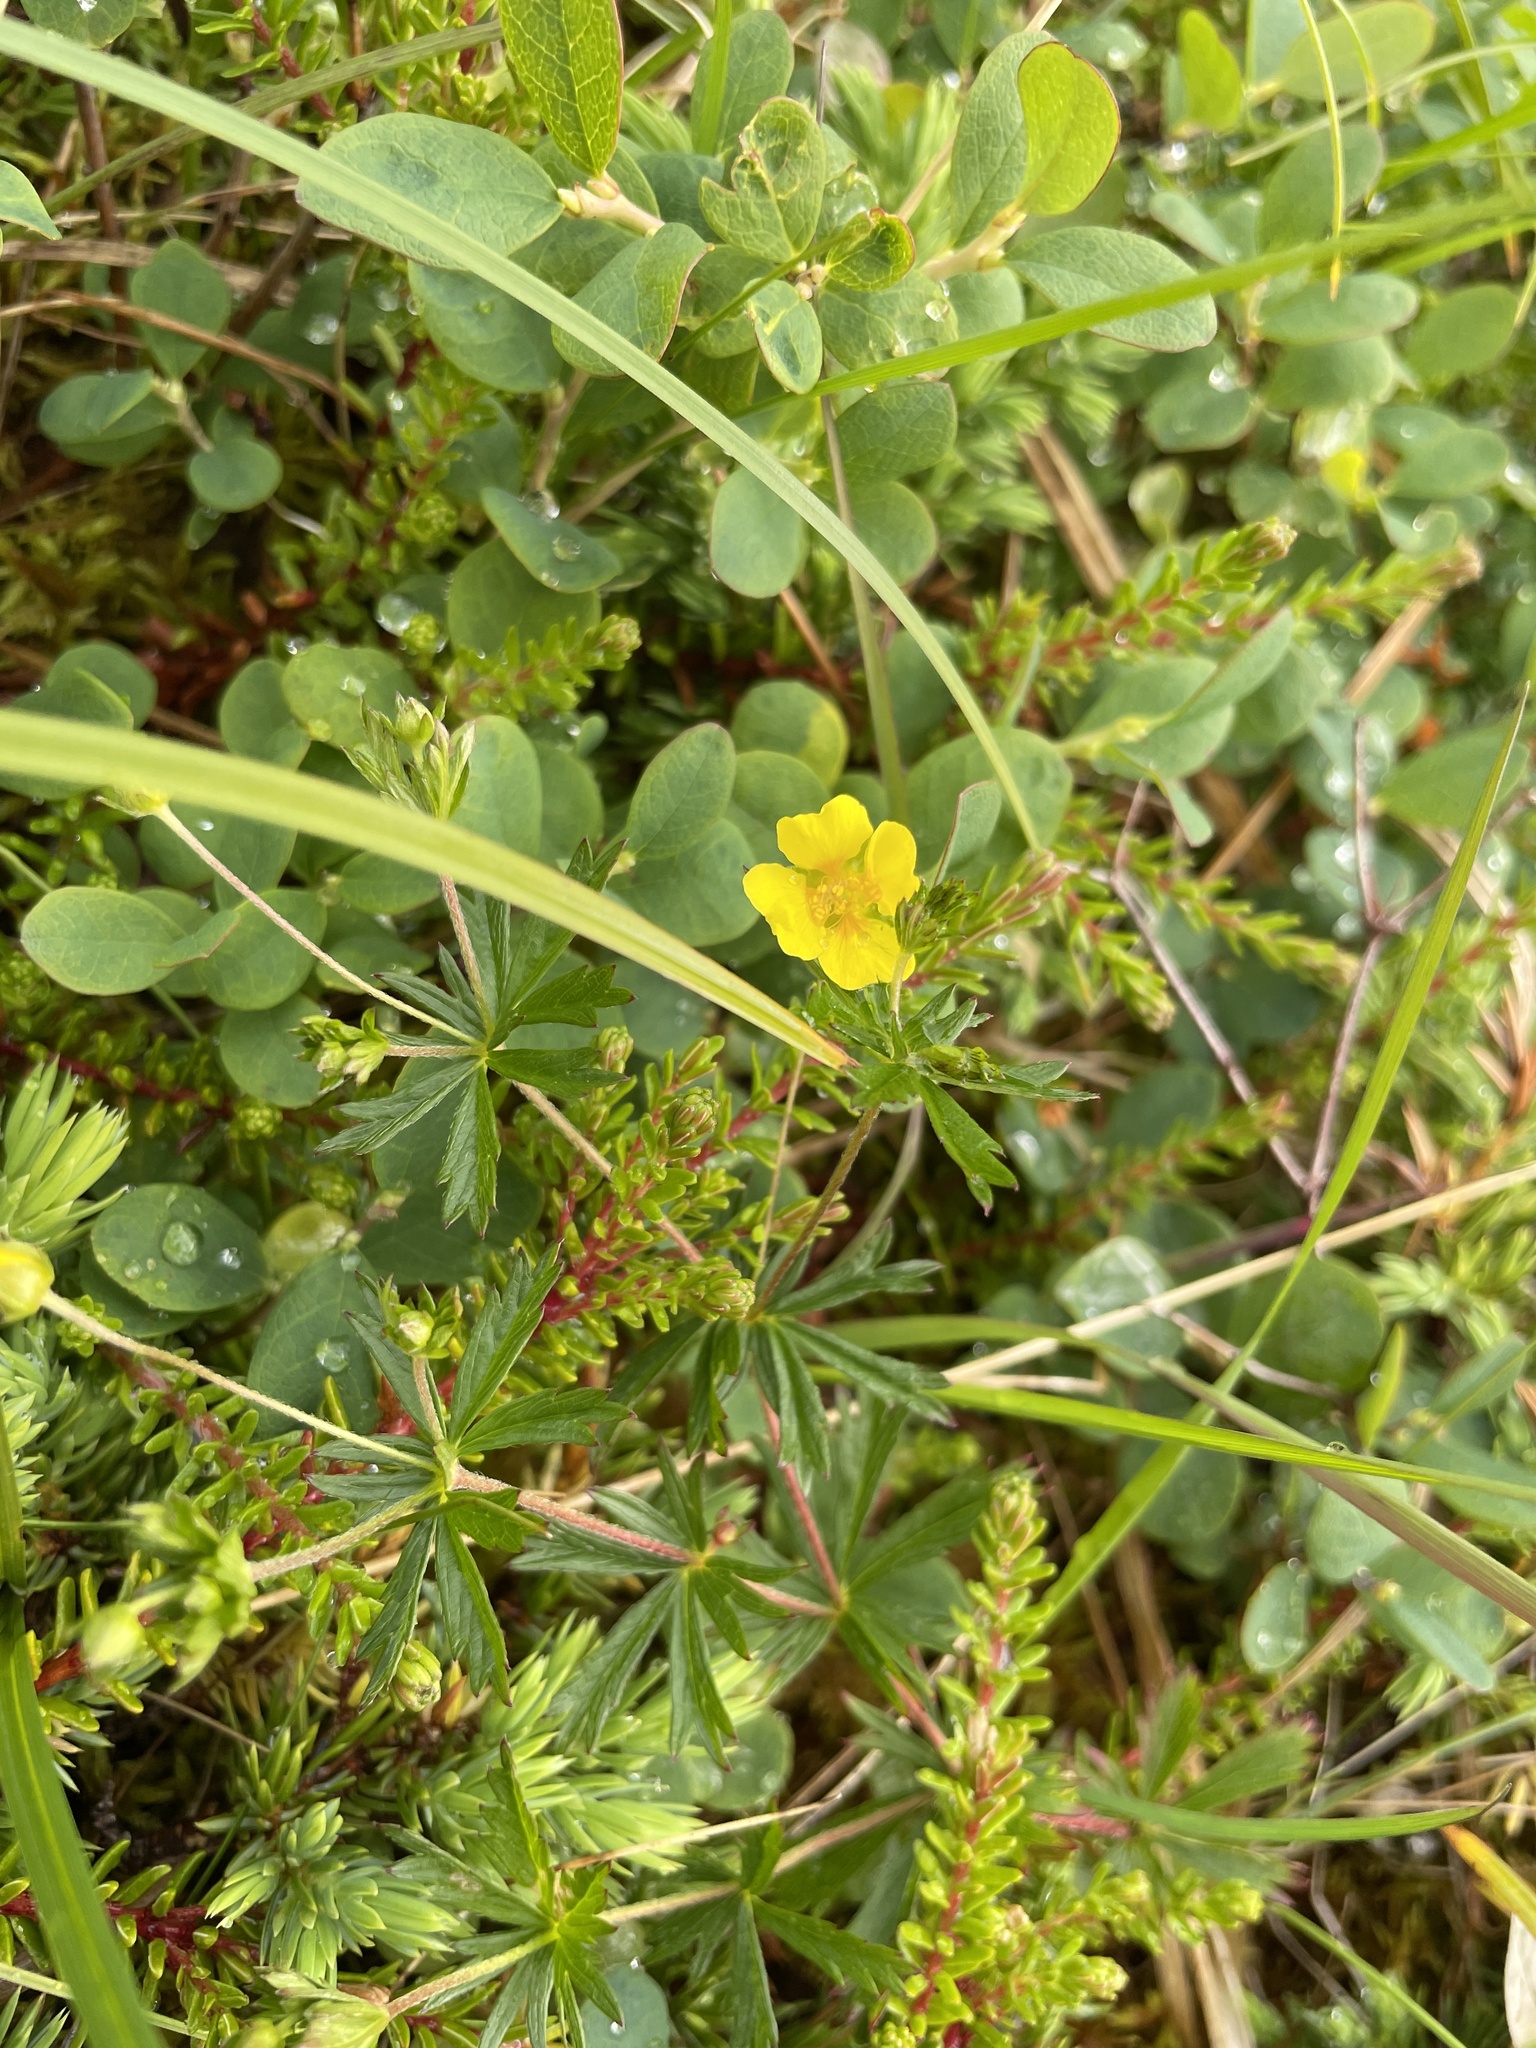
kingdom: Plantae
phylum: Tracheophyta
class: Magnoliopsida
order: Rosales
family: Rosaceae
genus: Potentilla
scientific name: Potentilla erecta
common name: Tormentil
